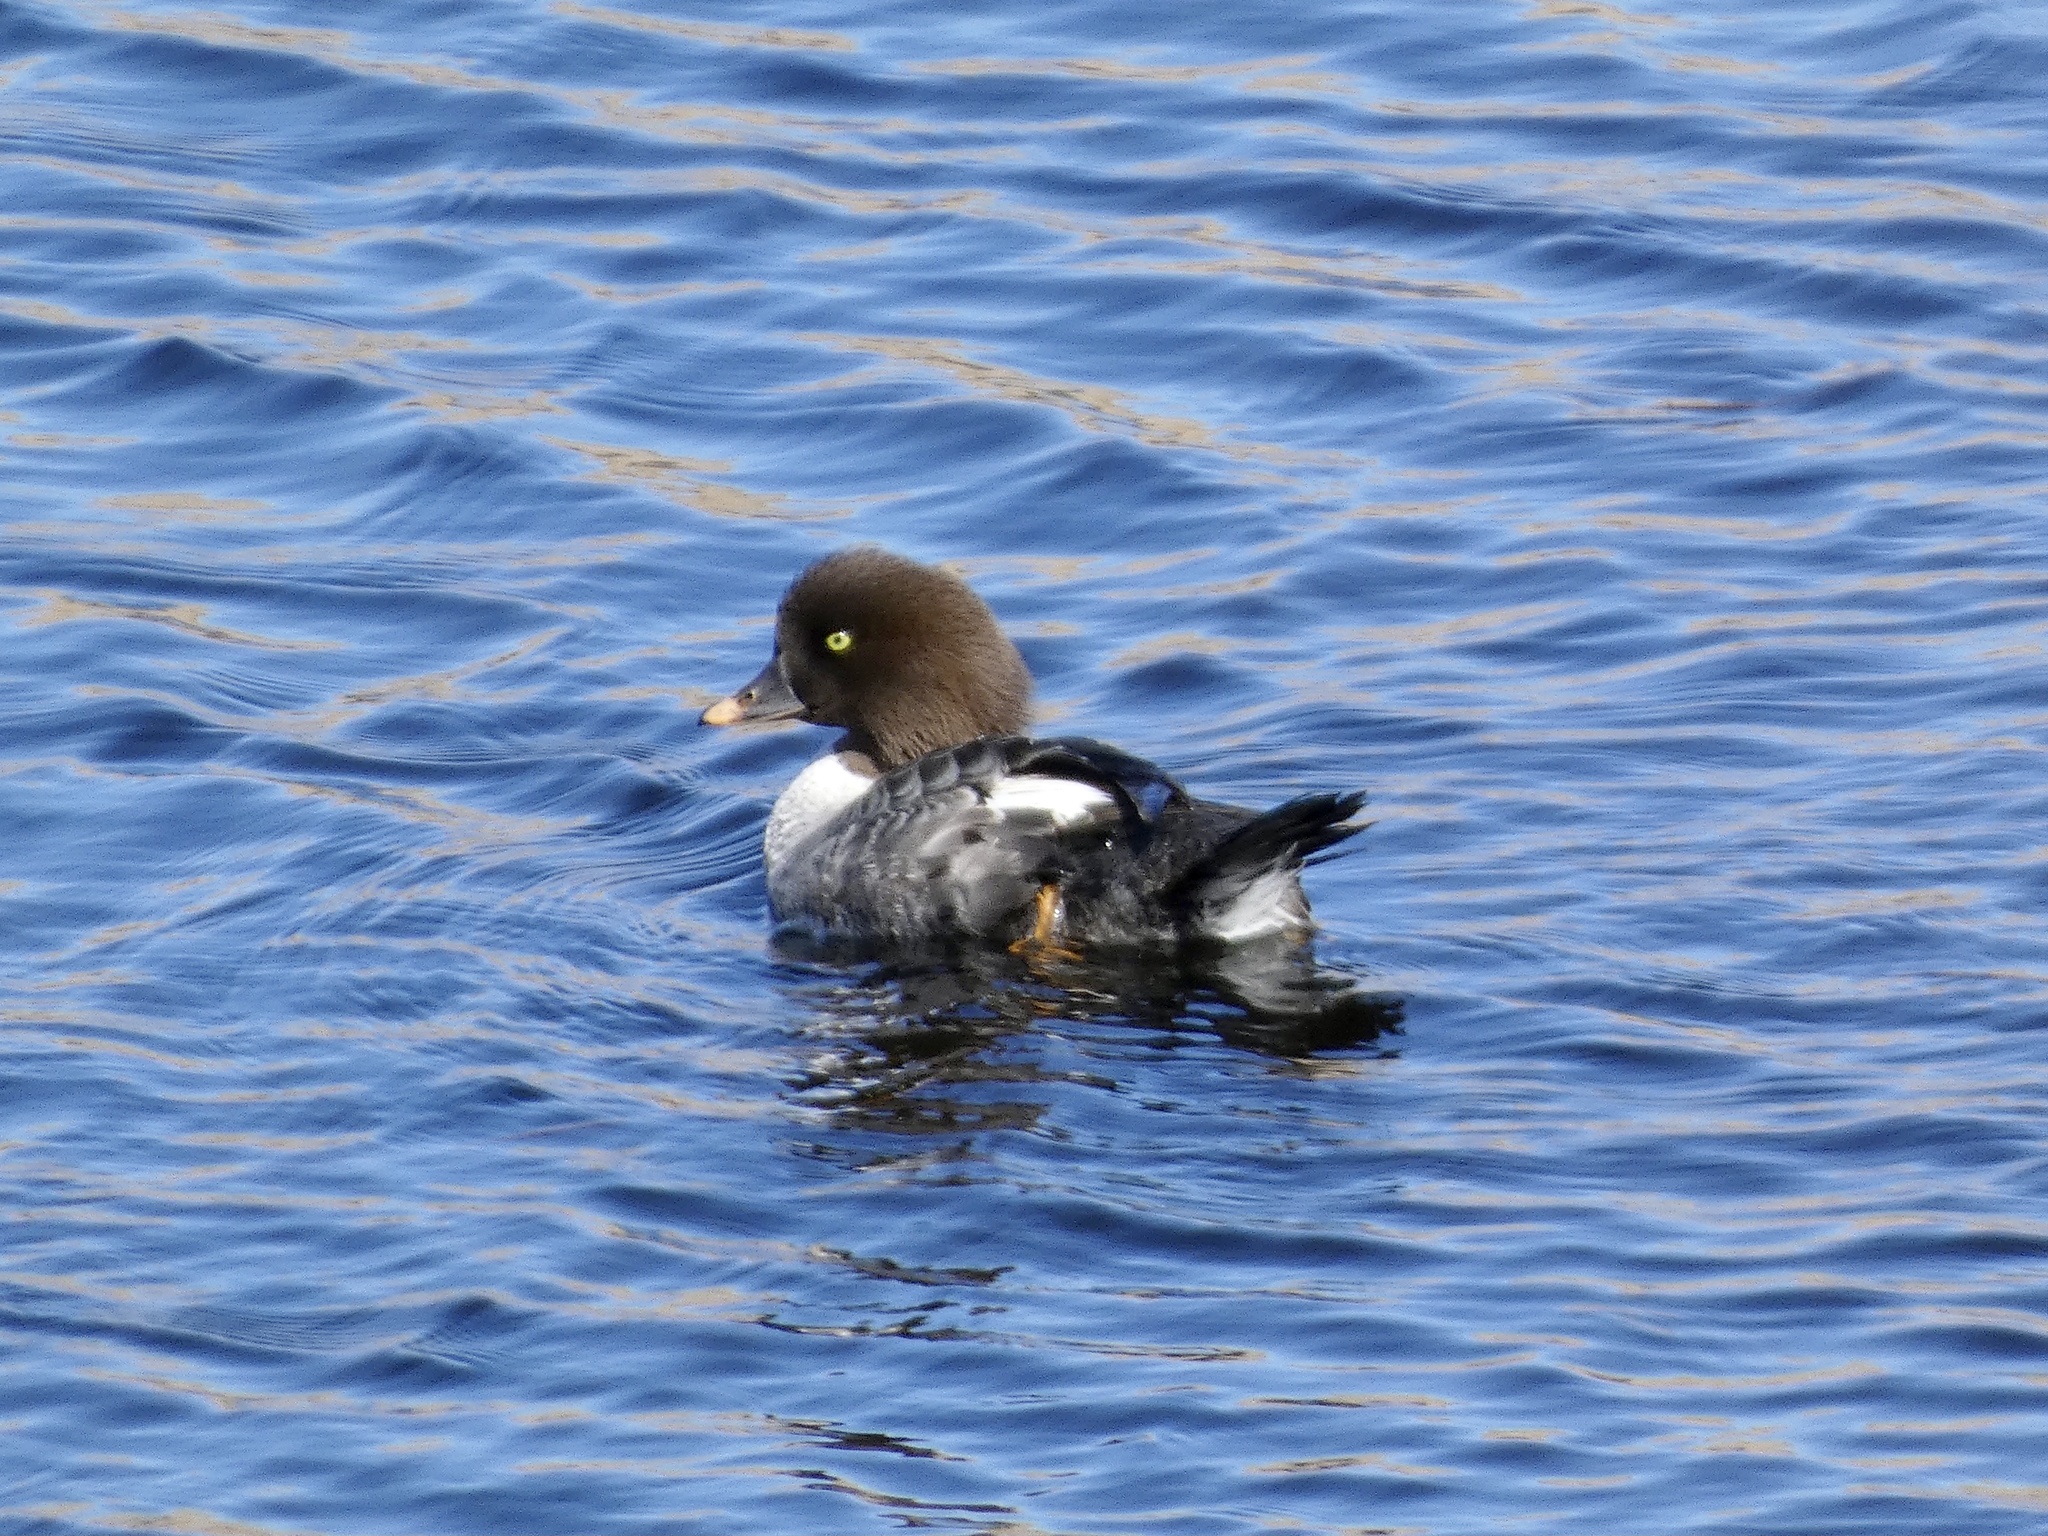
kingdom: Animalia
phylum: Chordata
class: Aves
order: Anseriformes
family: Anatidae
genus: Bucephala
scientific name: Bucephala clangula
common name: Common goldeneye
